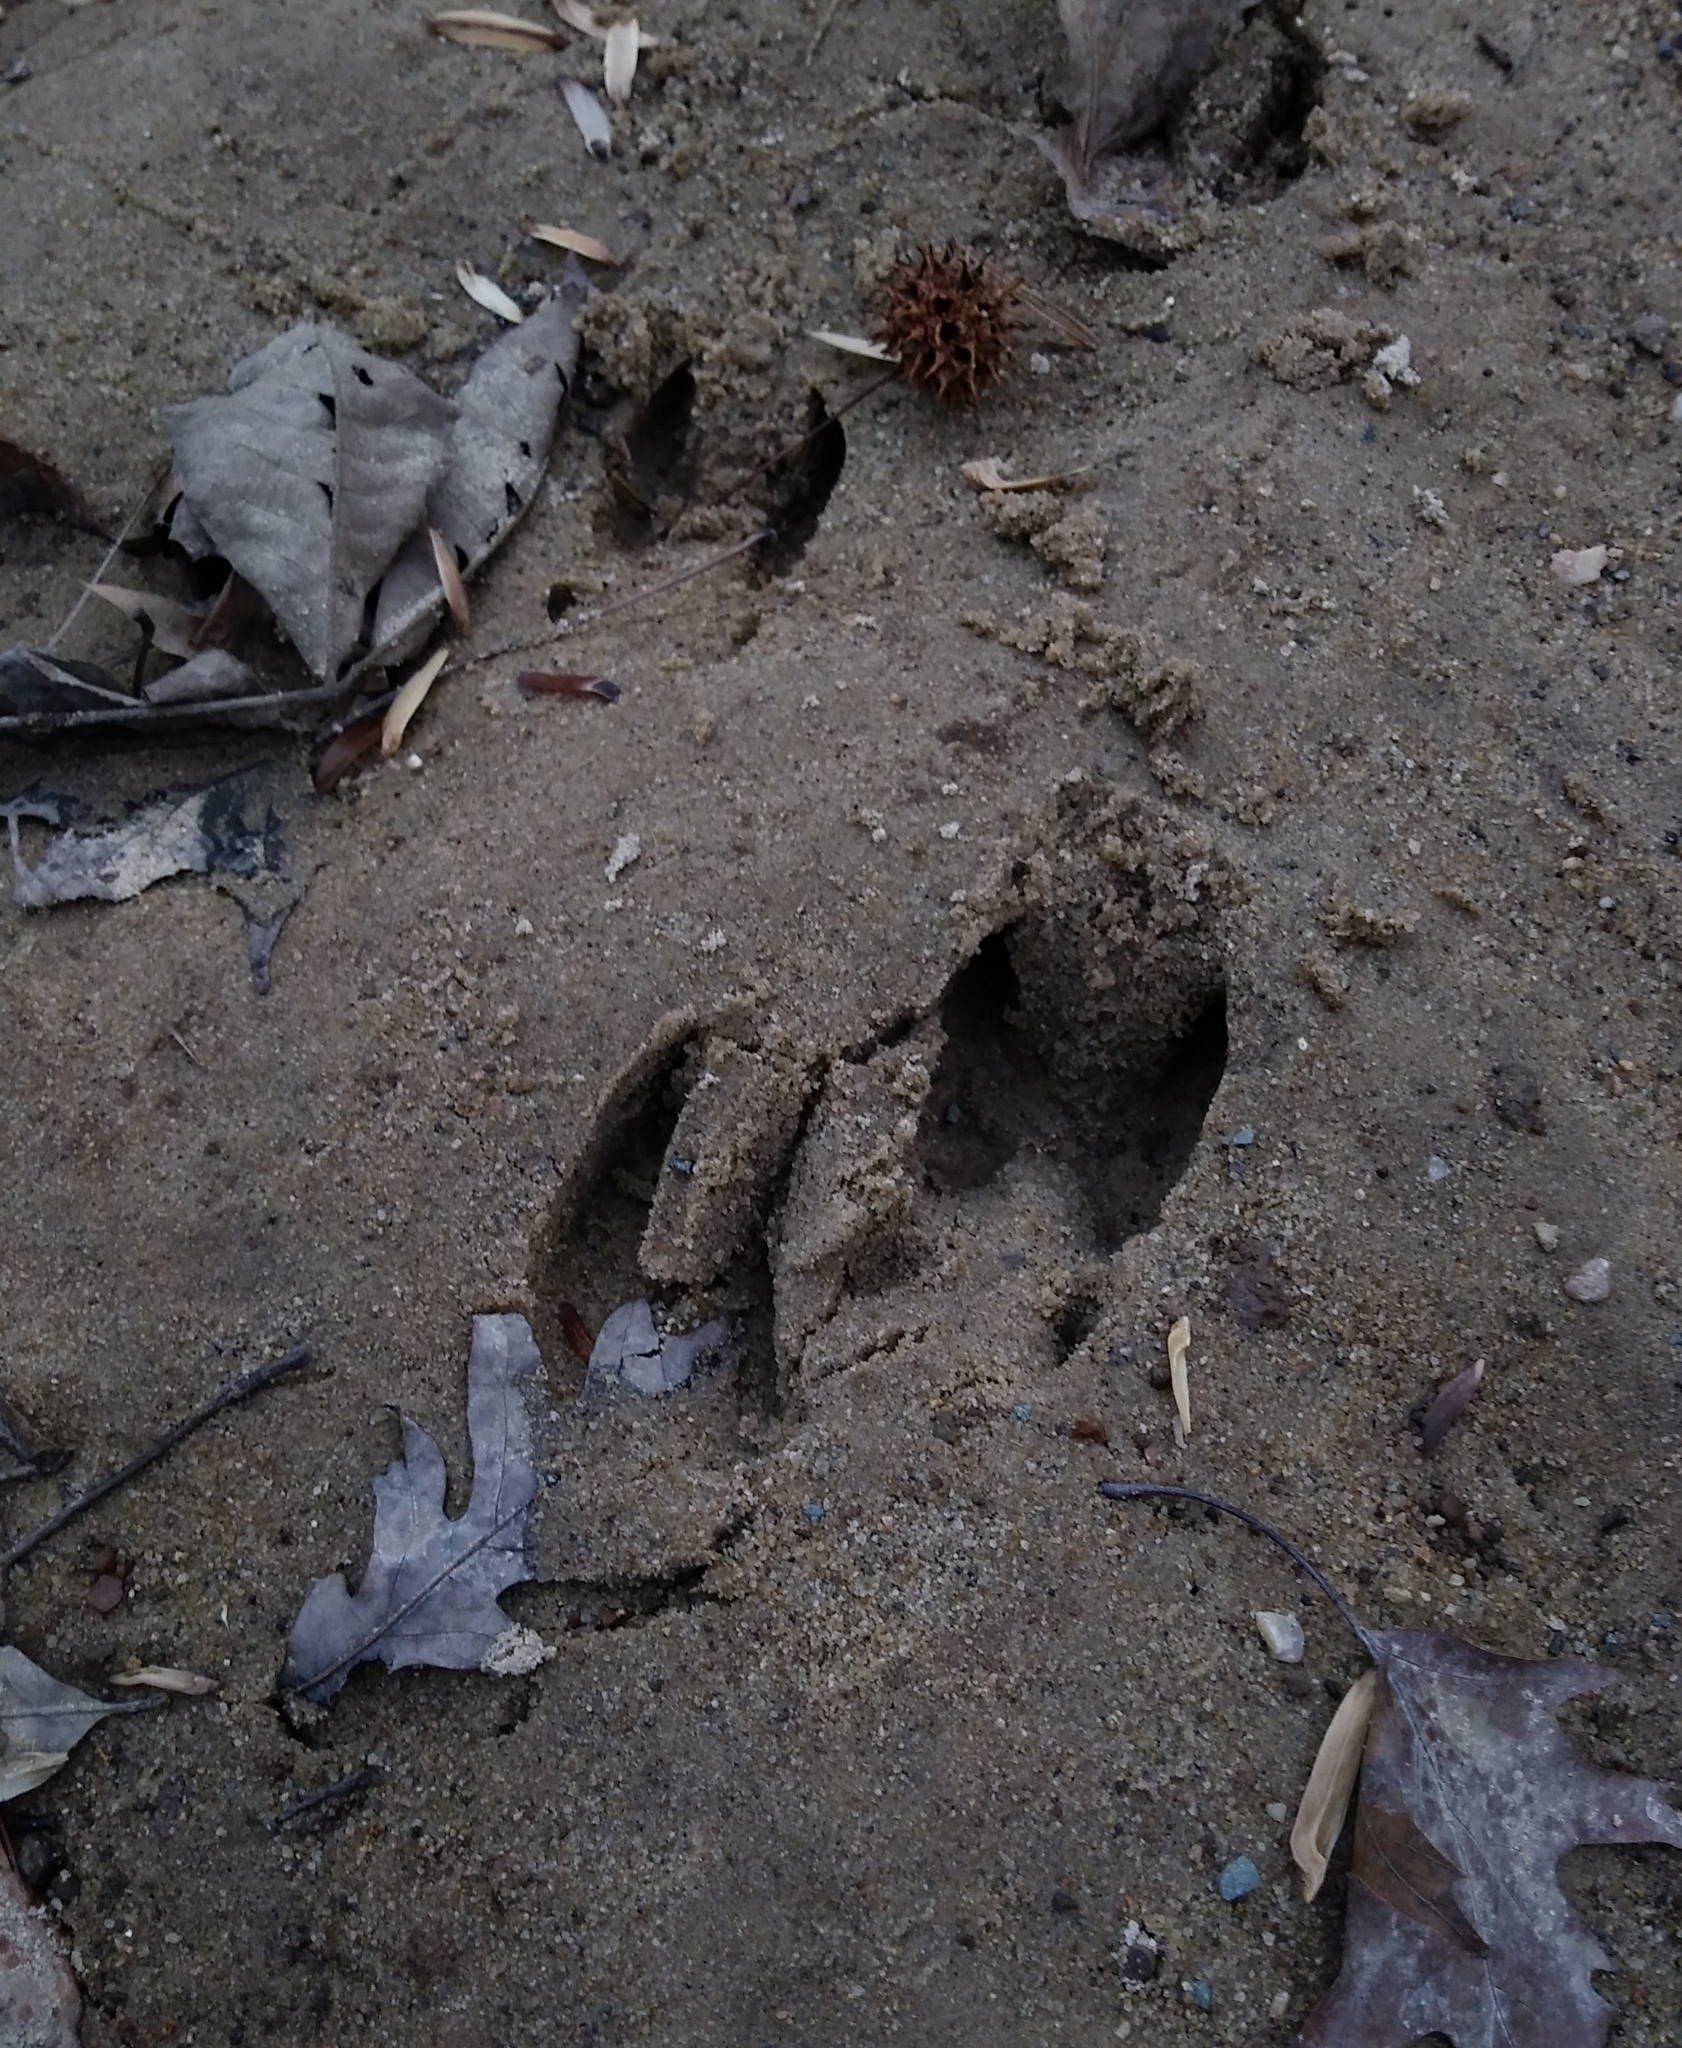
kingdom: Animalia
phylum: Chordata
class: Mammalia
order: Artiodactyla
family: Cervidae
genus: Odocoileus
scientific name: Odocoileus virginianus
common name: White-tailed deer
